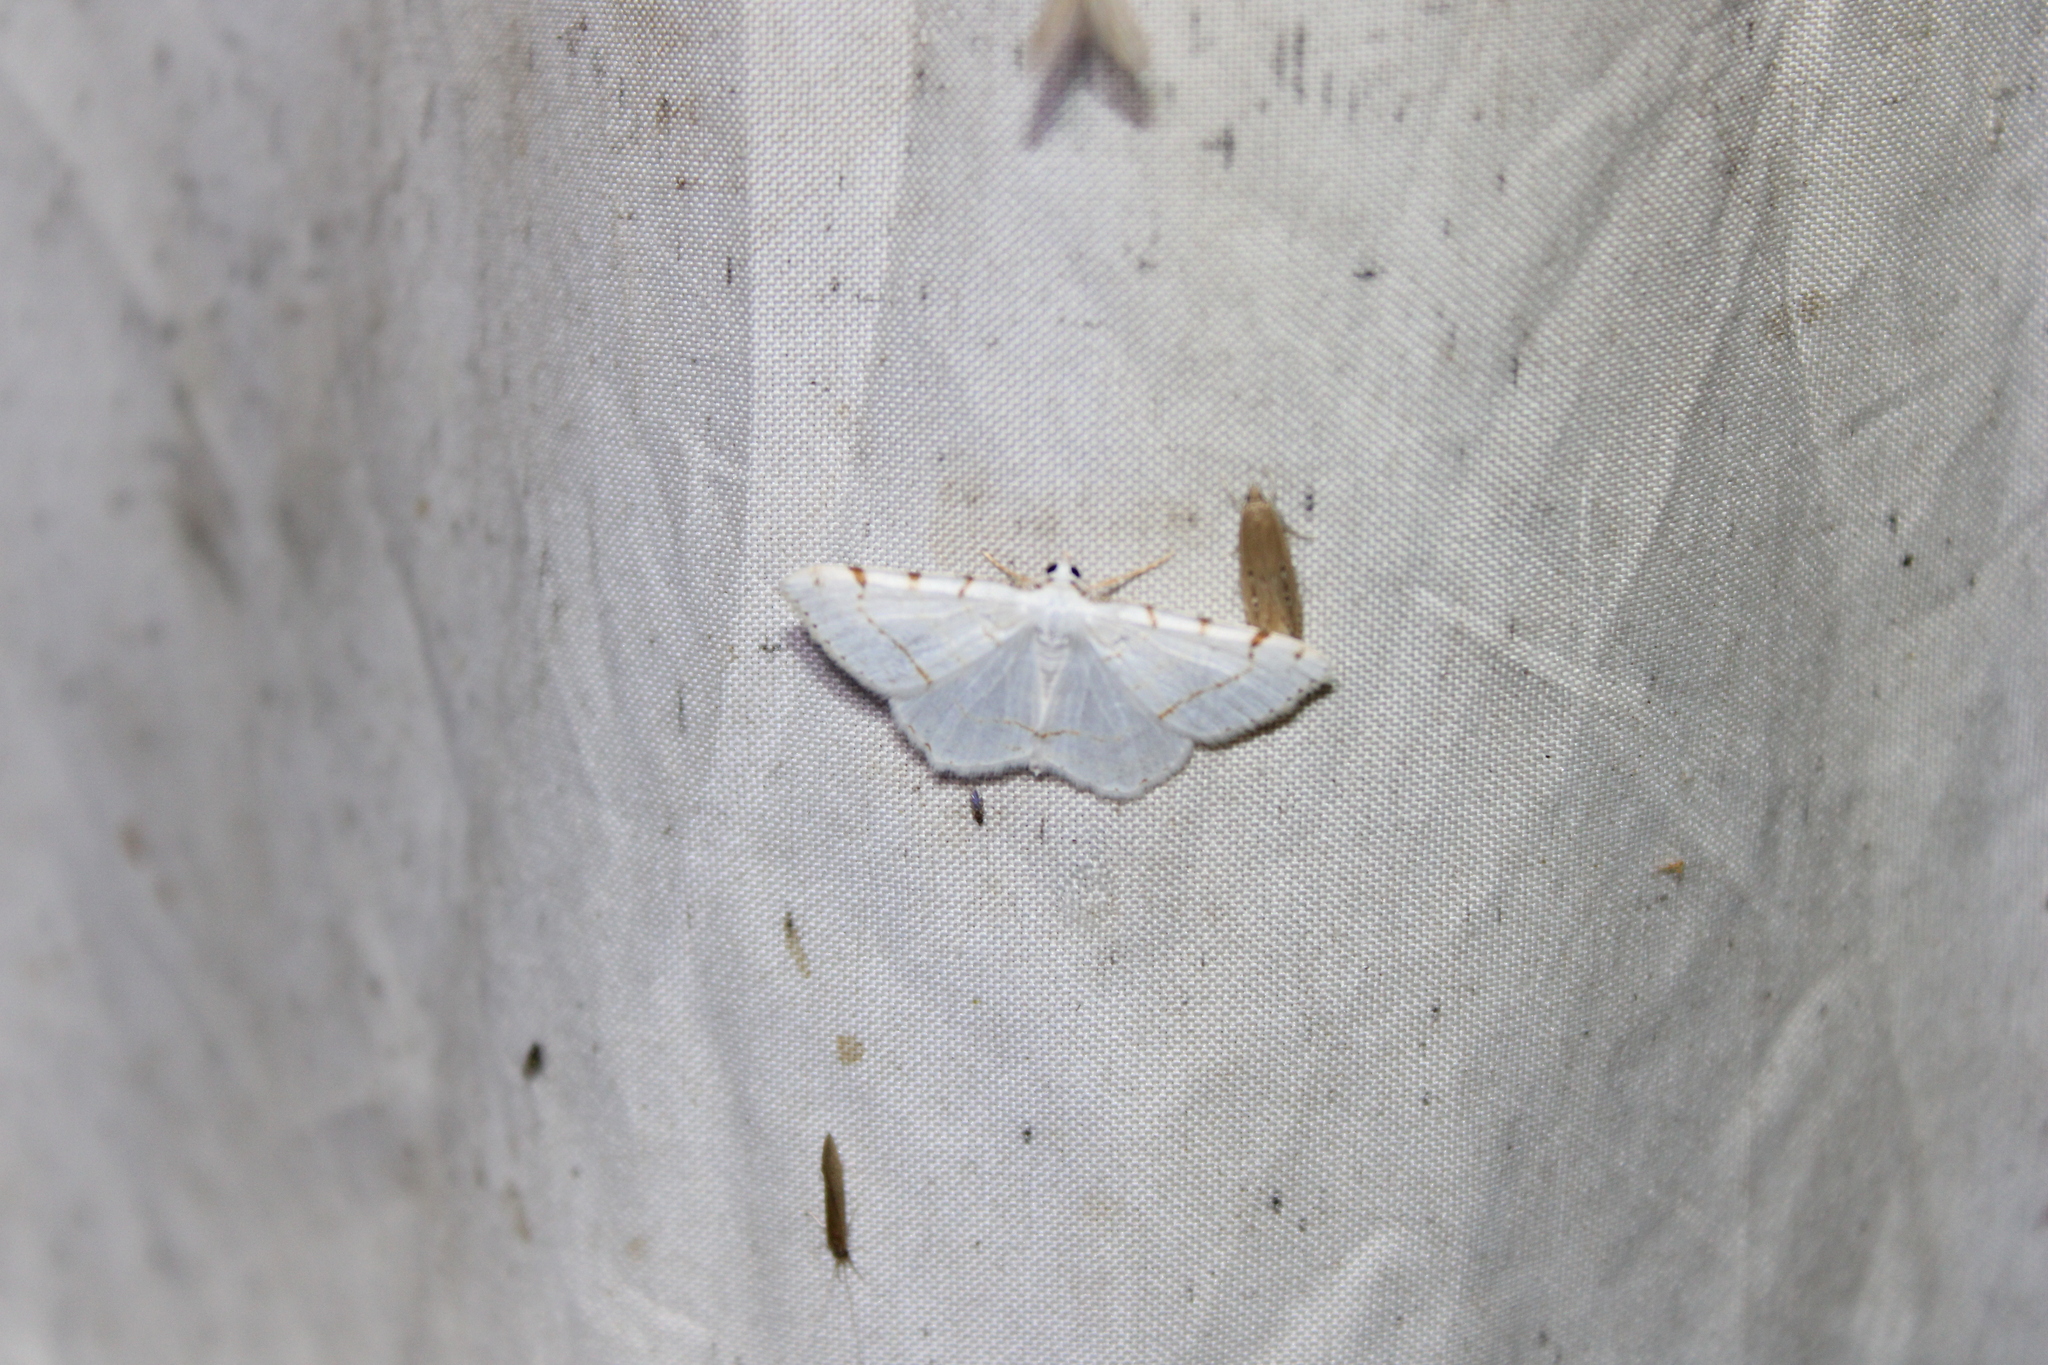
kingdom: Animalia
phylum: Arthropoda
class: Insecta
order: Lepidoptera
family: Geometridae
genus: Macaria
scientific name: Macaria pustularia
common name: Lesser maple spanworm moth
